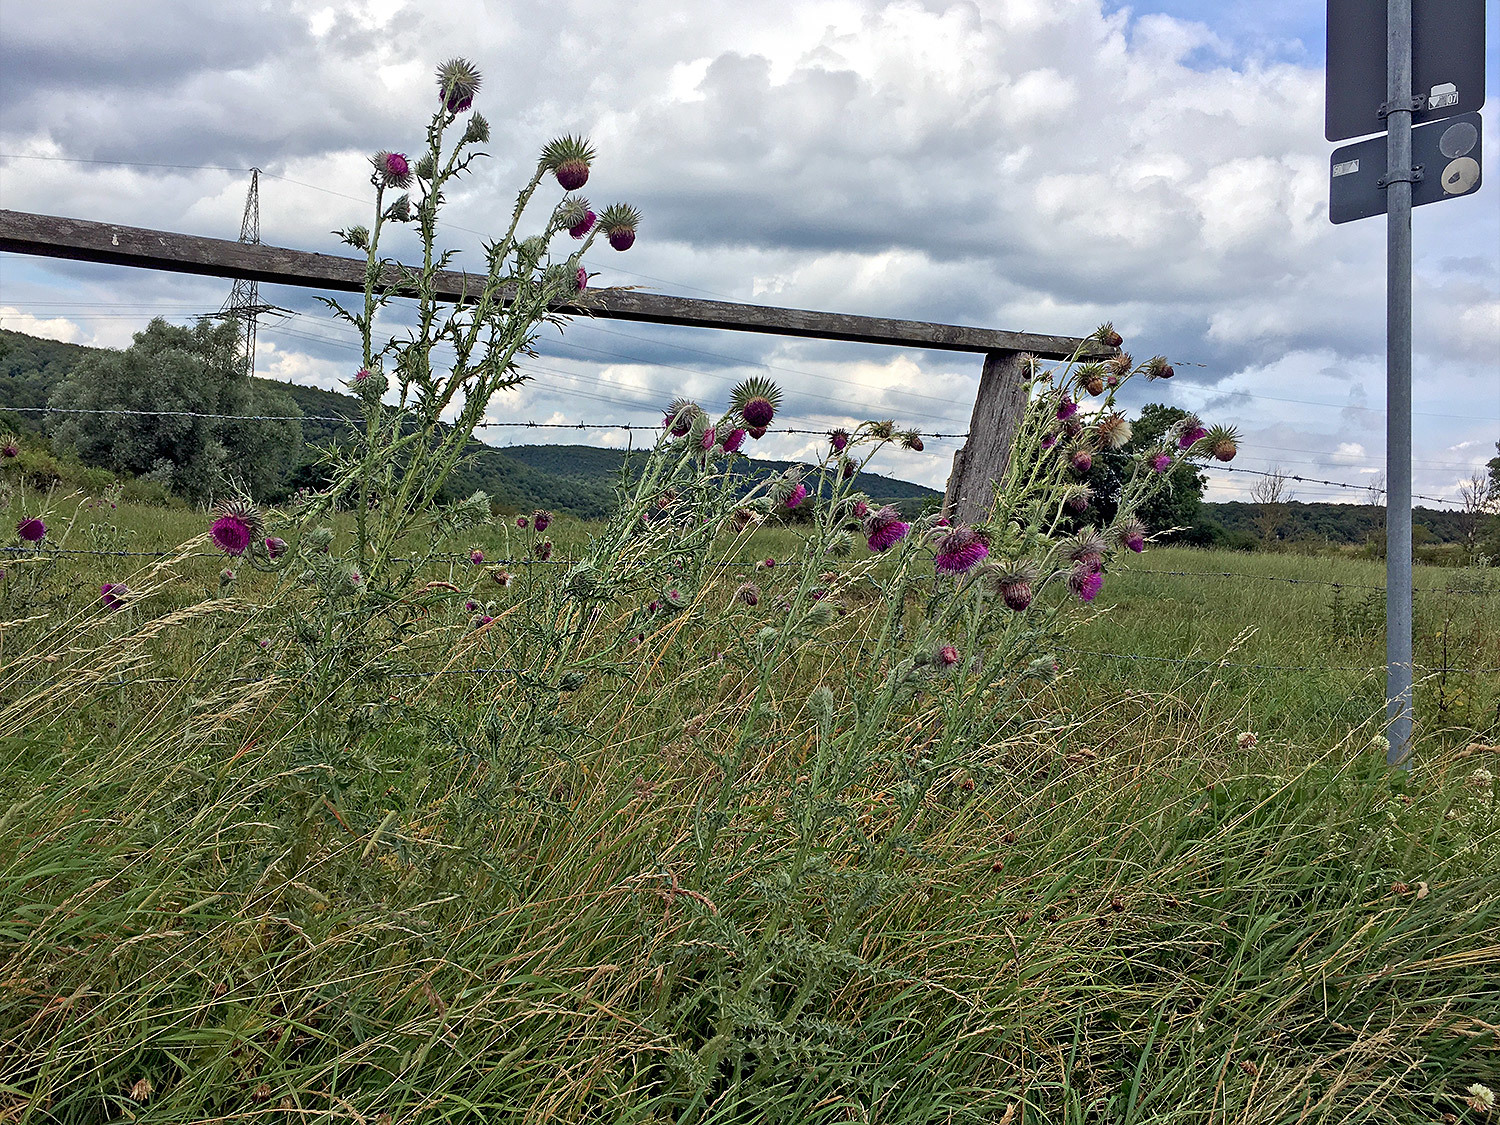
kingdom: Plantae
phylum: Tracheophyta
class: Magnoliopsida
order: Asterales
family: Asteraceae
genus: Carduus
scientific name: Carduus nutans
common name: Musk thistle
